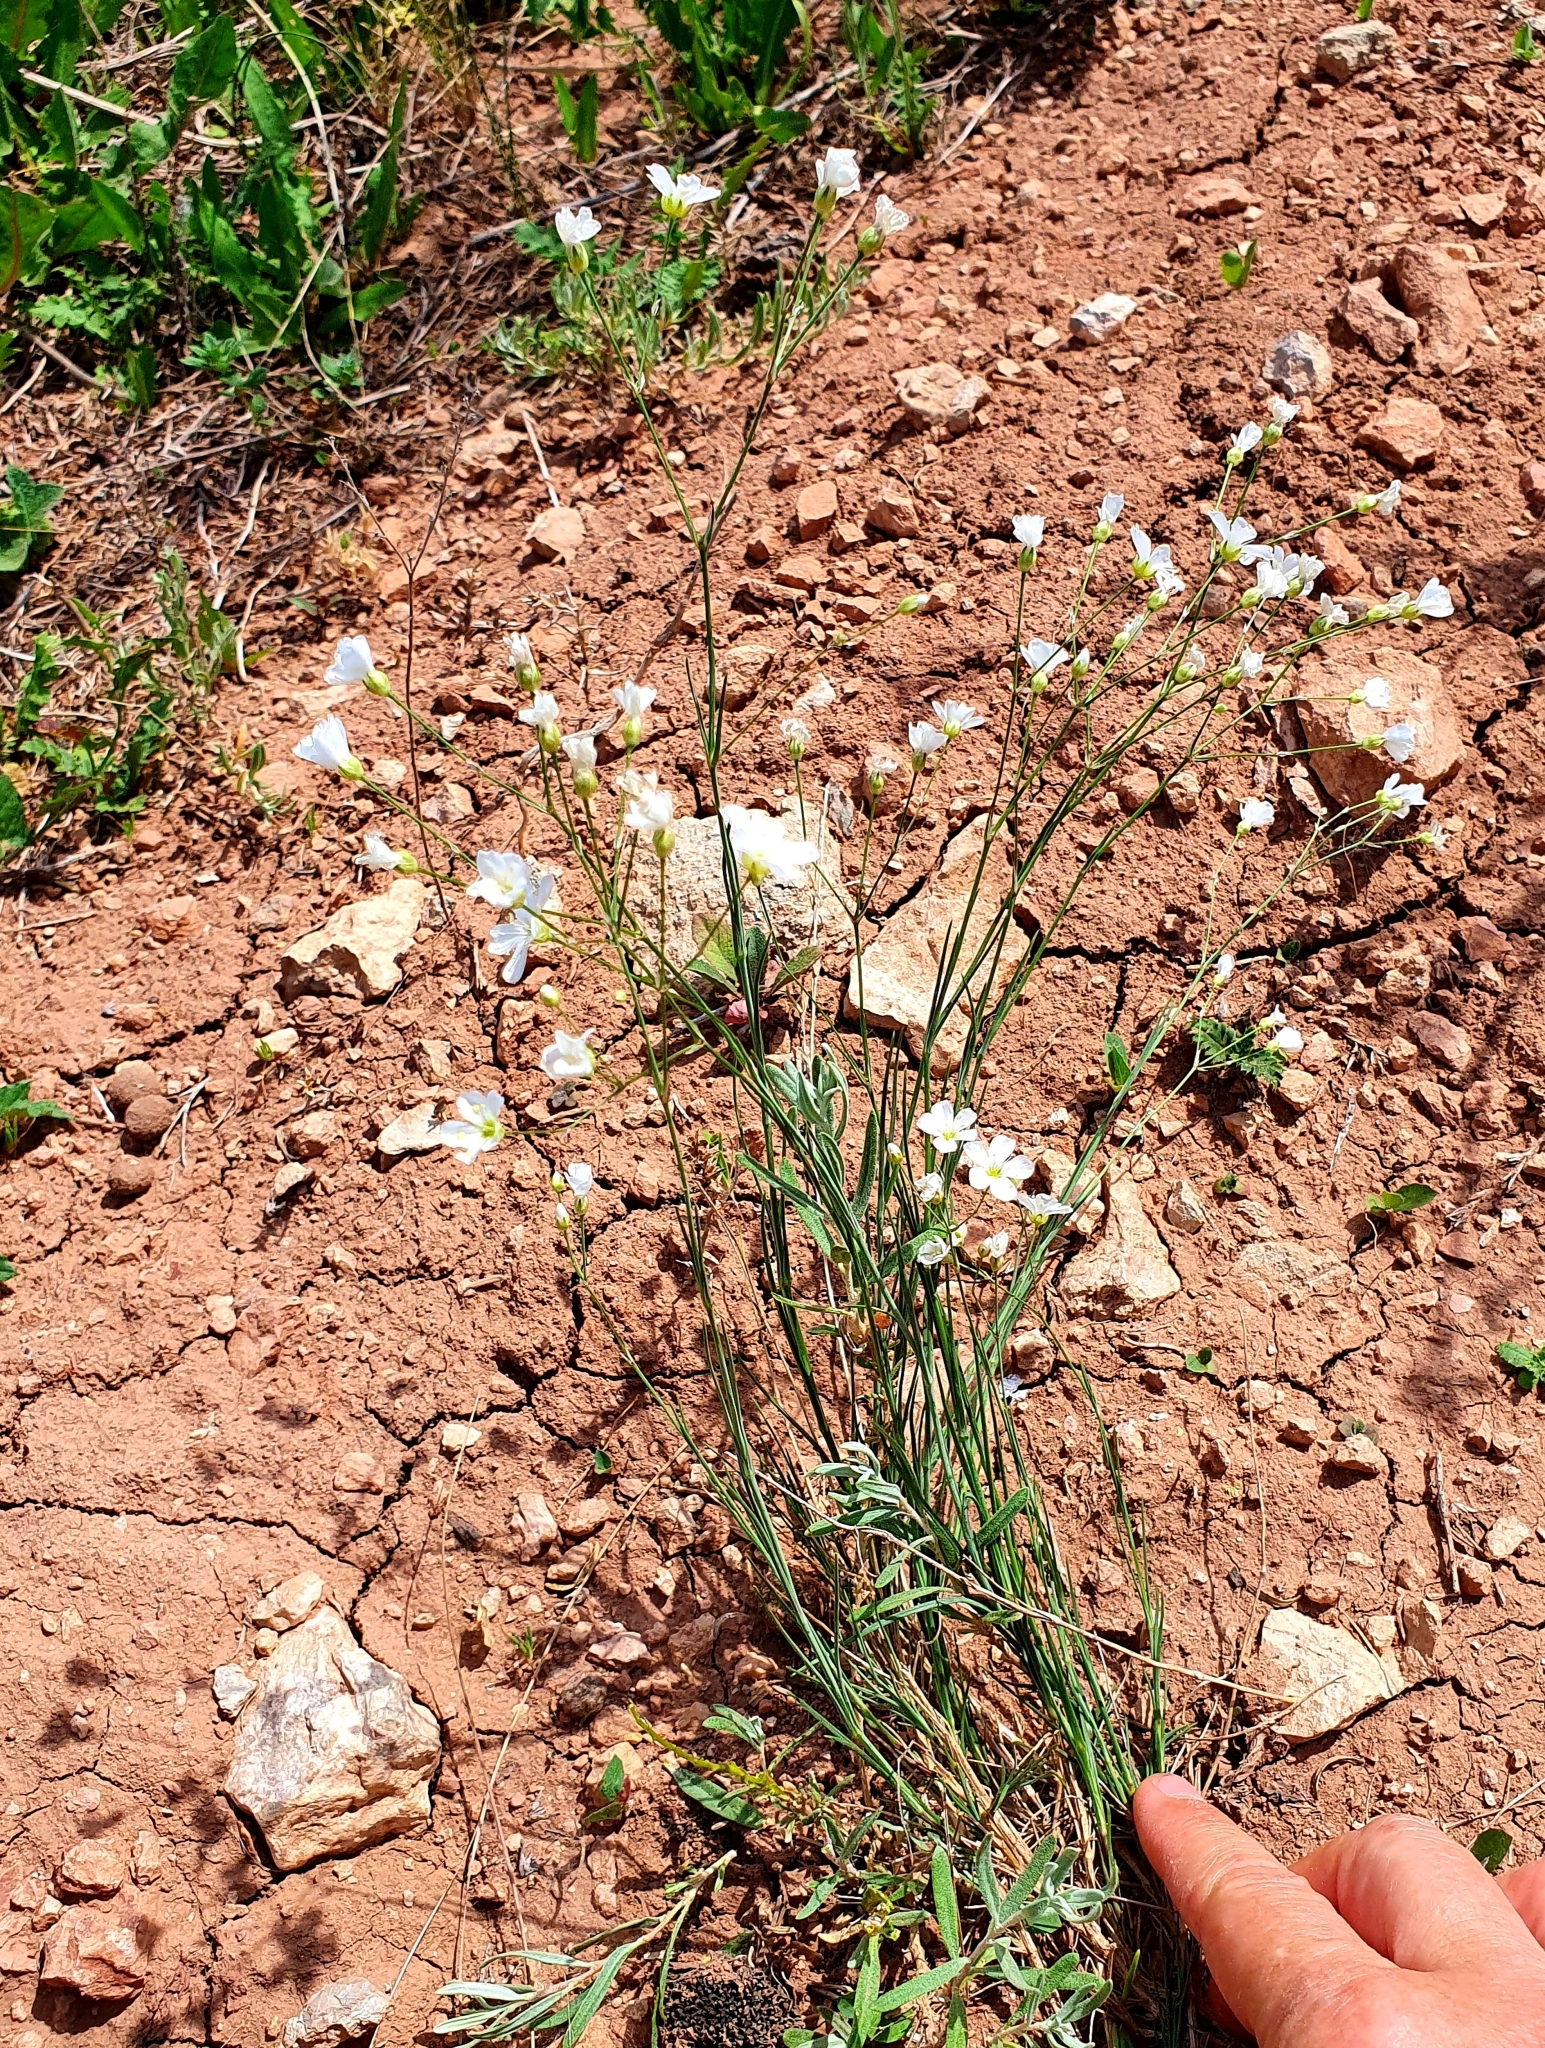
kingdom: Plantae
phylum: Tracheophyta
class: Magnoliopsida
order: Caryophyllales
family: Caryophyllaceae
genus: Eremogone
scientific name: Eremogone saxatilis
